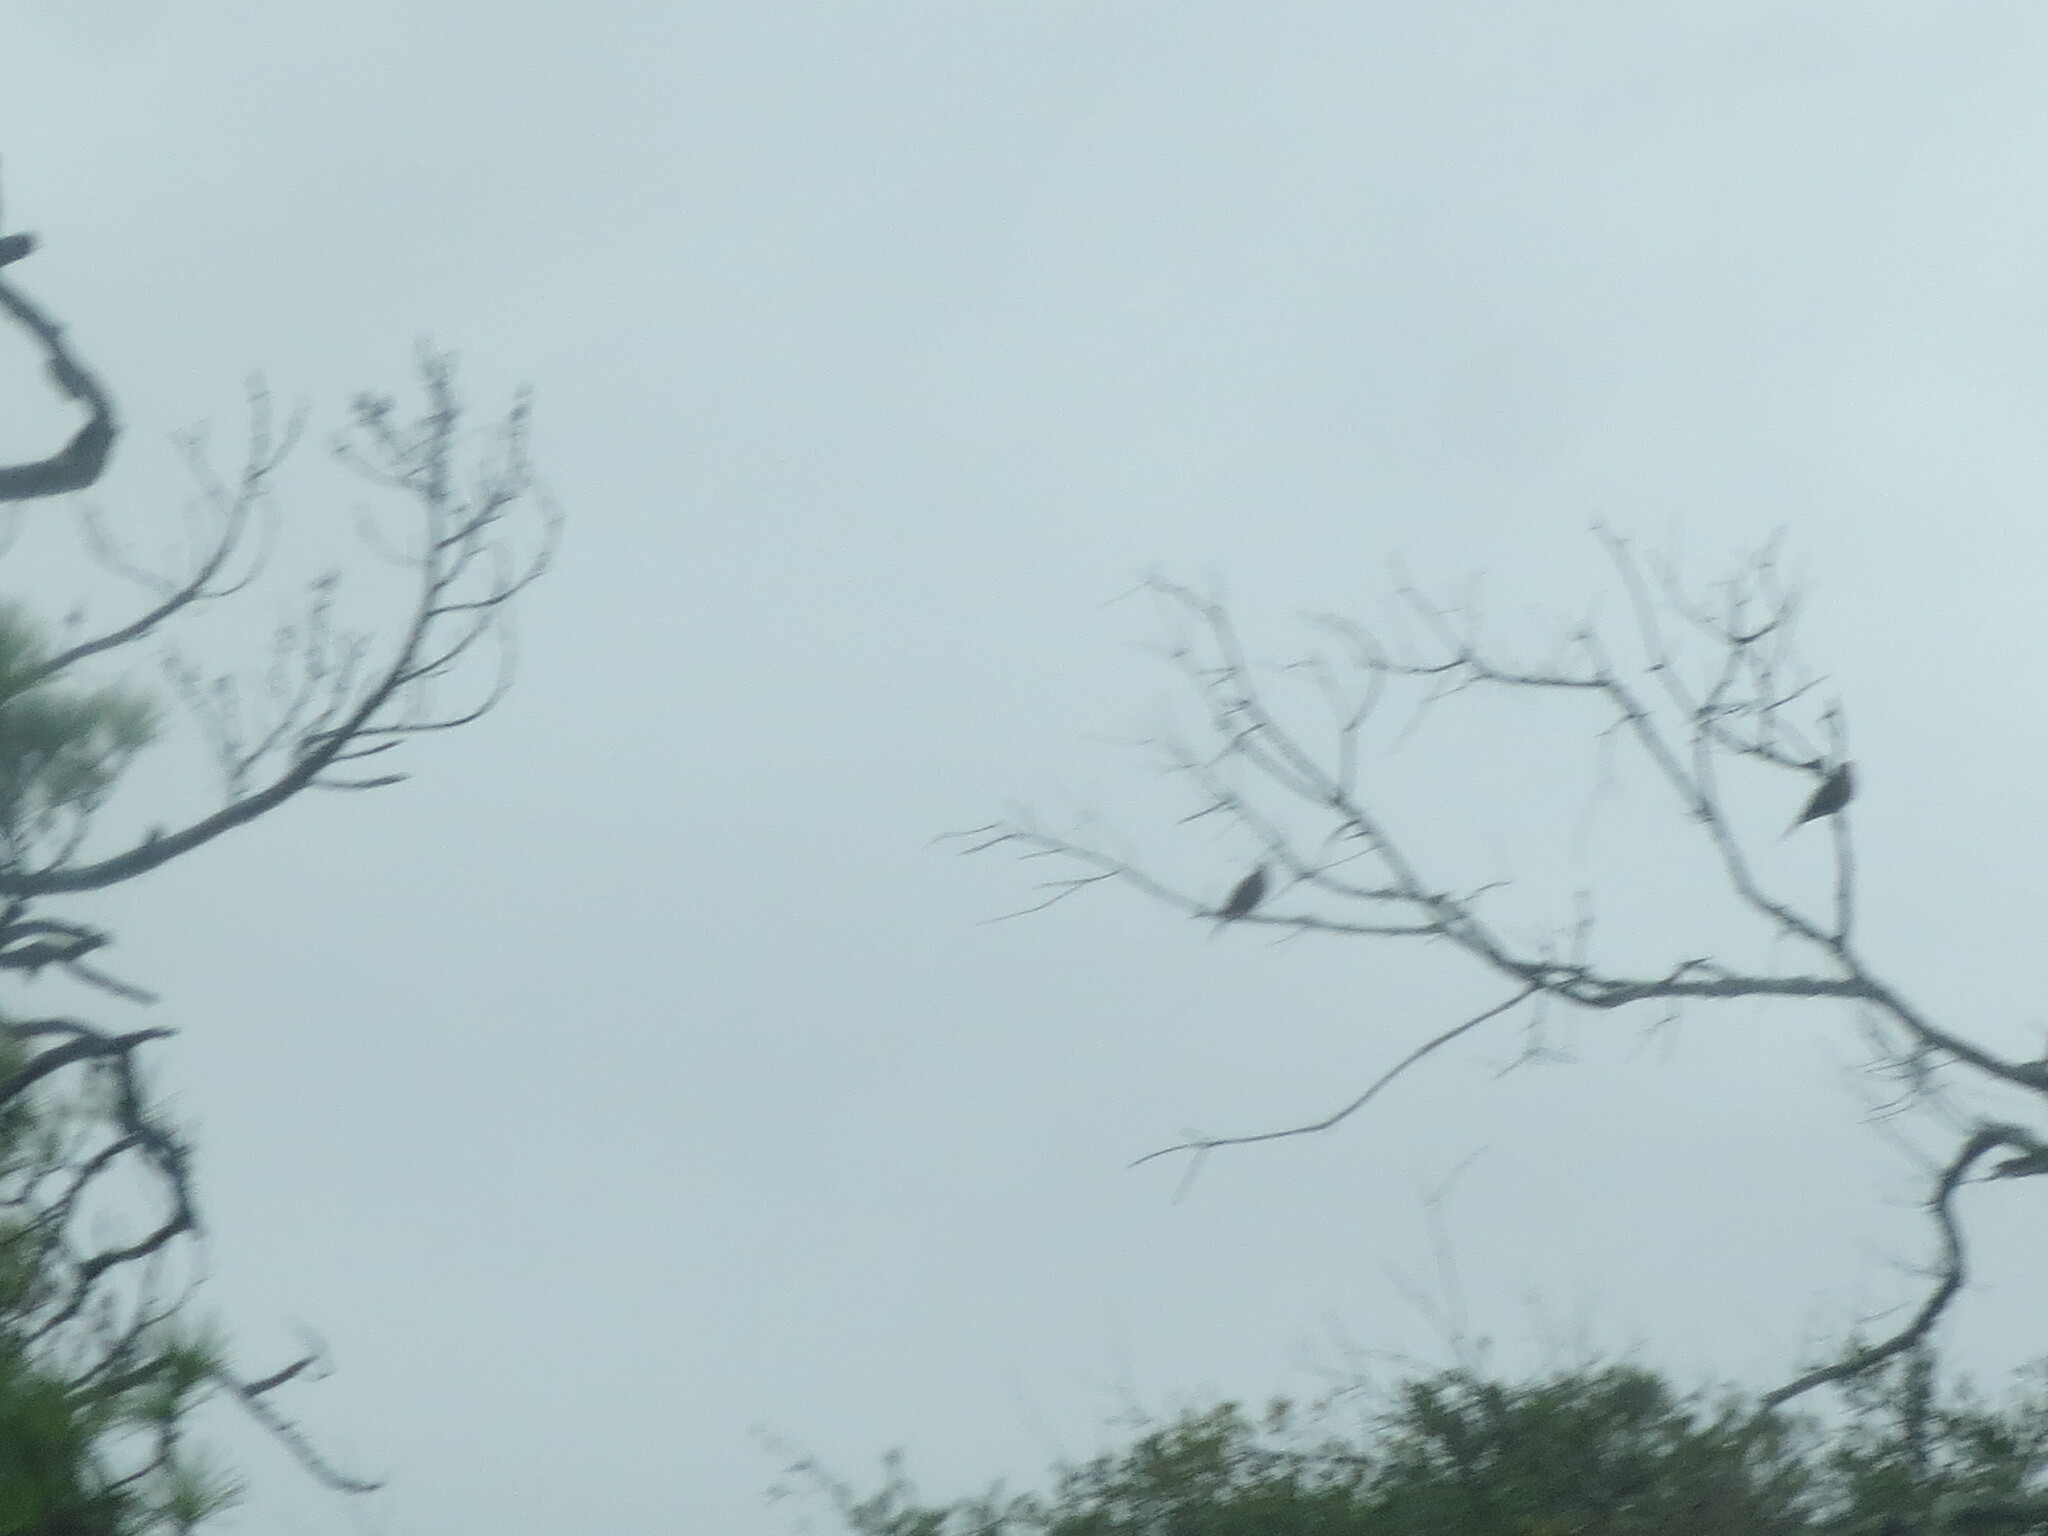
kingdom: Animalia
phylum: Chordata
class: Aves
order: Columbiformes
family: Columbidae
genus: Zenaida
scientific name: Zenaida macroura
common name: Mourning dove
